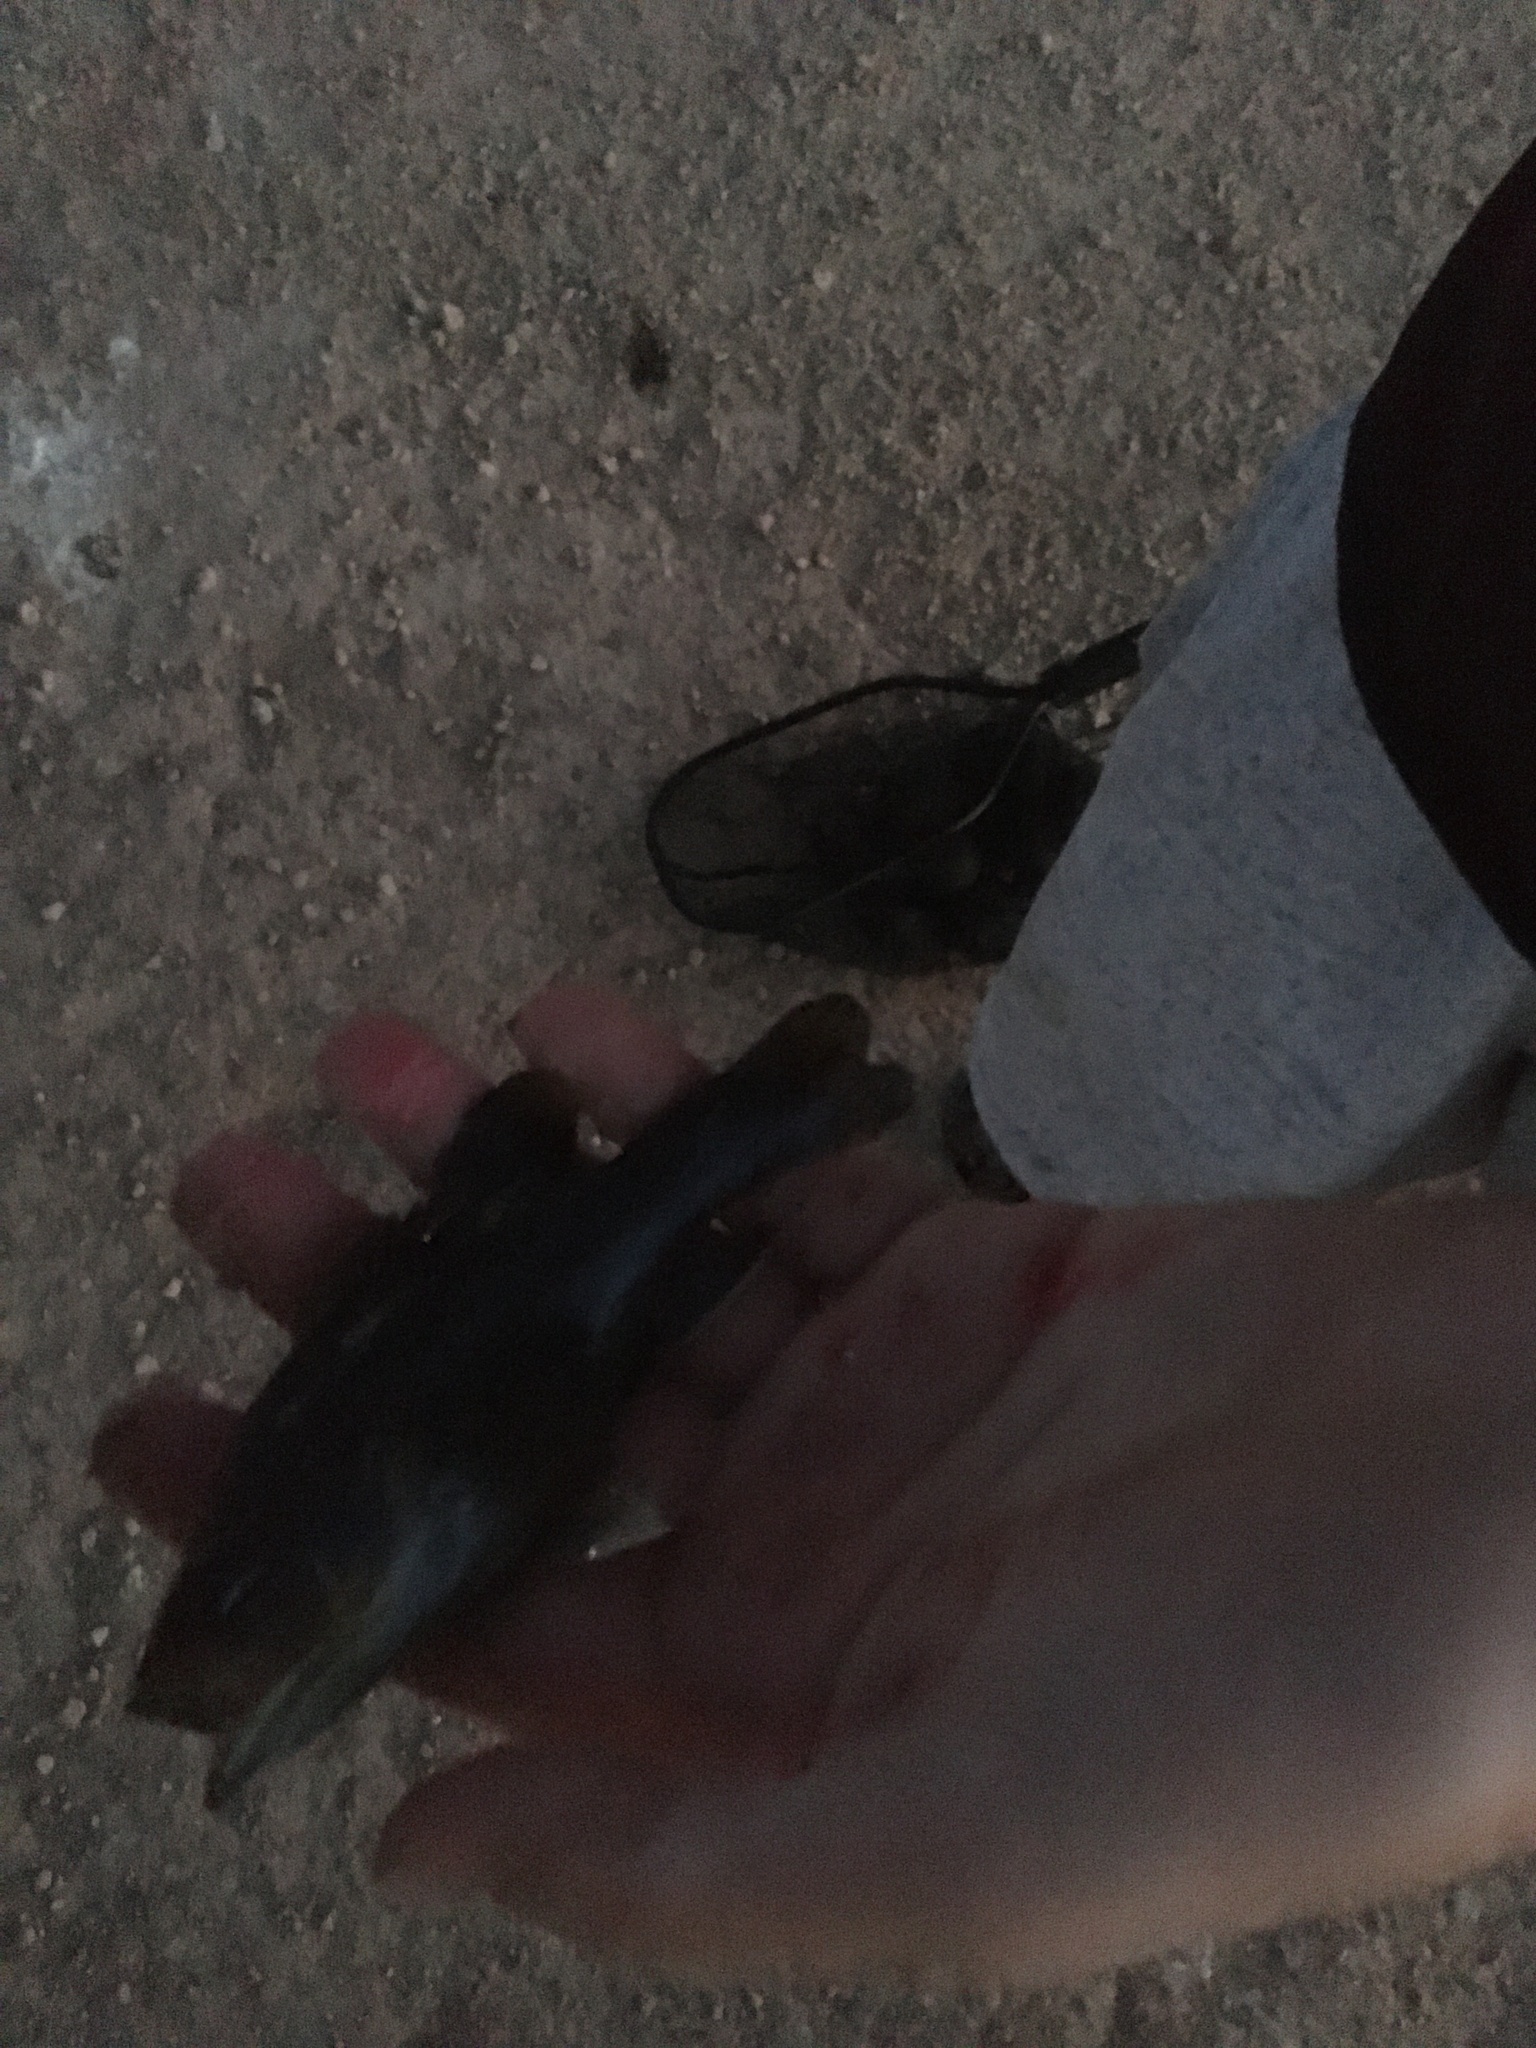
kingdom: Animalia
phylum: Chordata
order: Perciformes
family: Centrarchidae
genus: Lepomis
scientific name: Lepomis cyanellus
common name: Green sunfish
